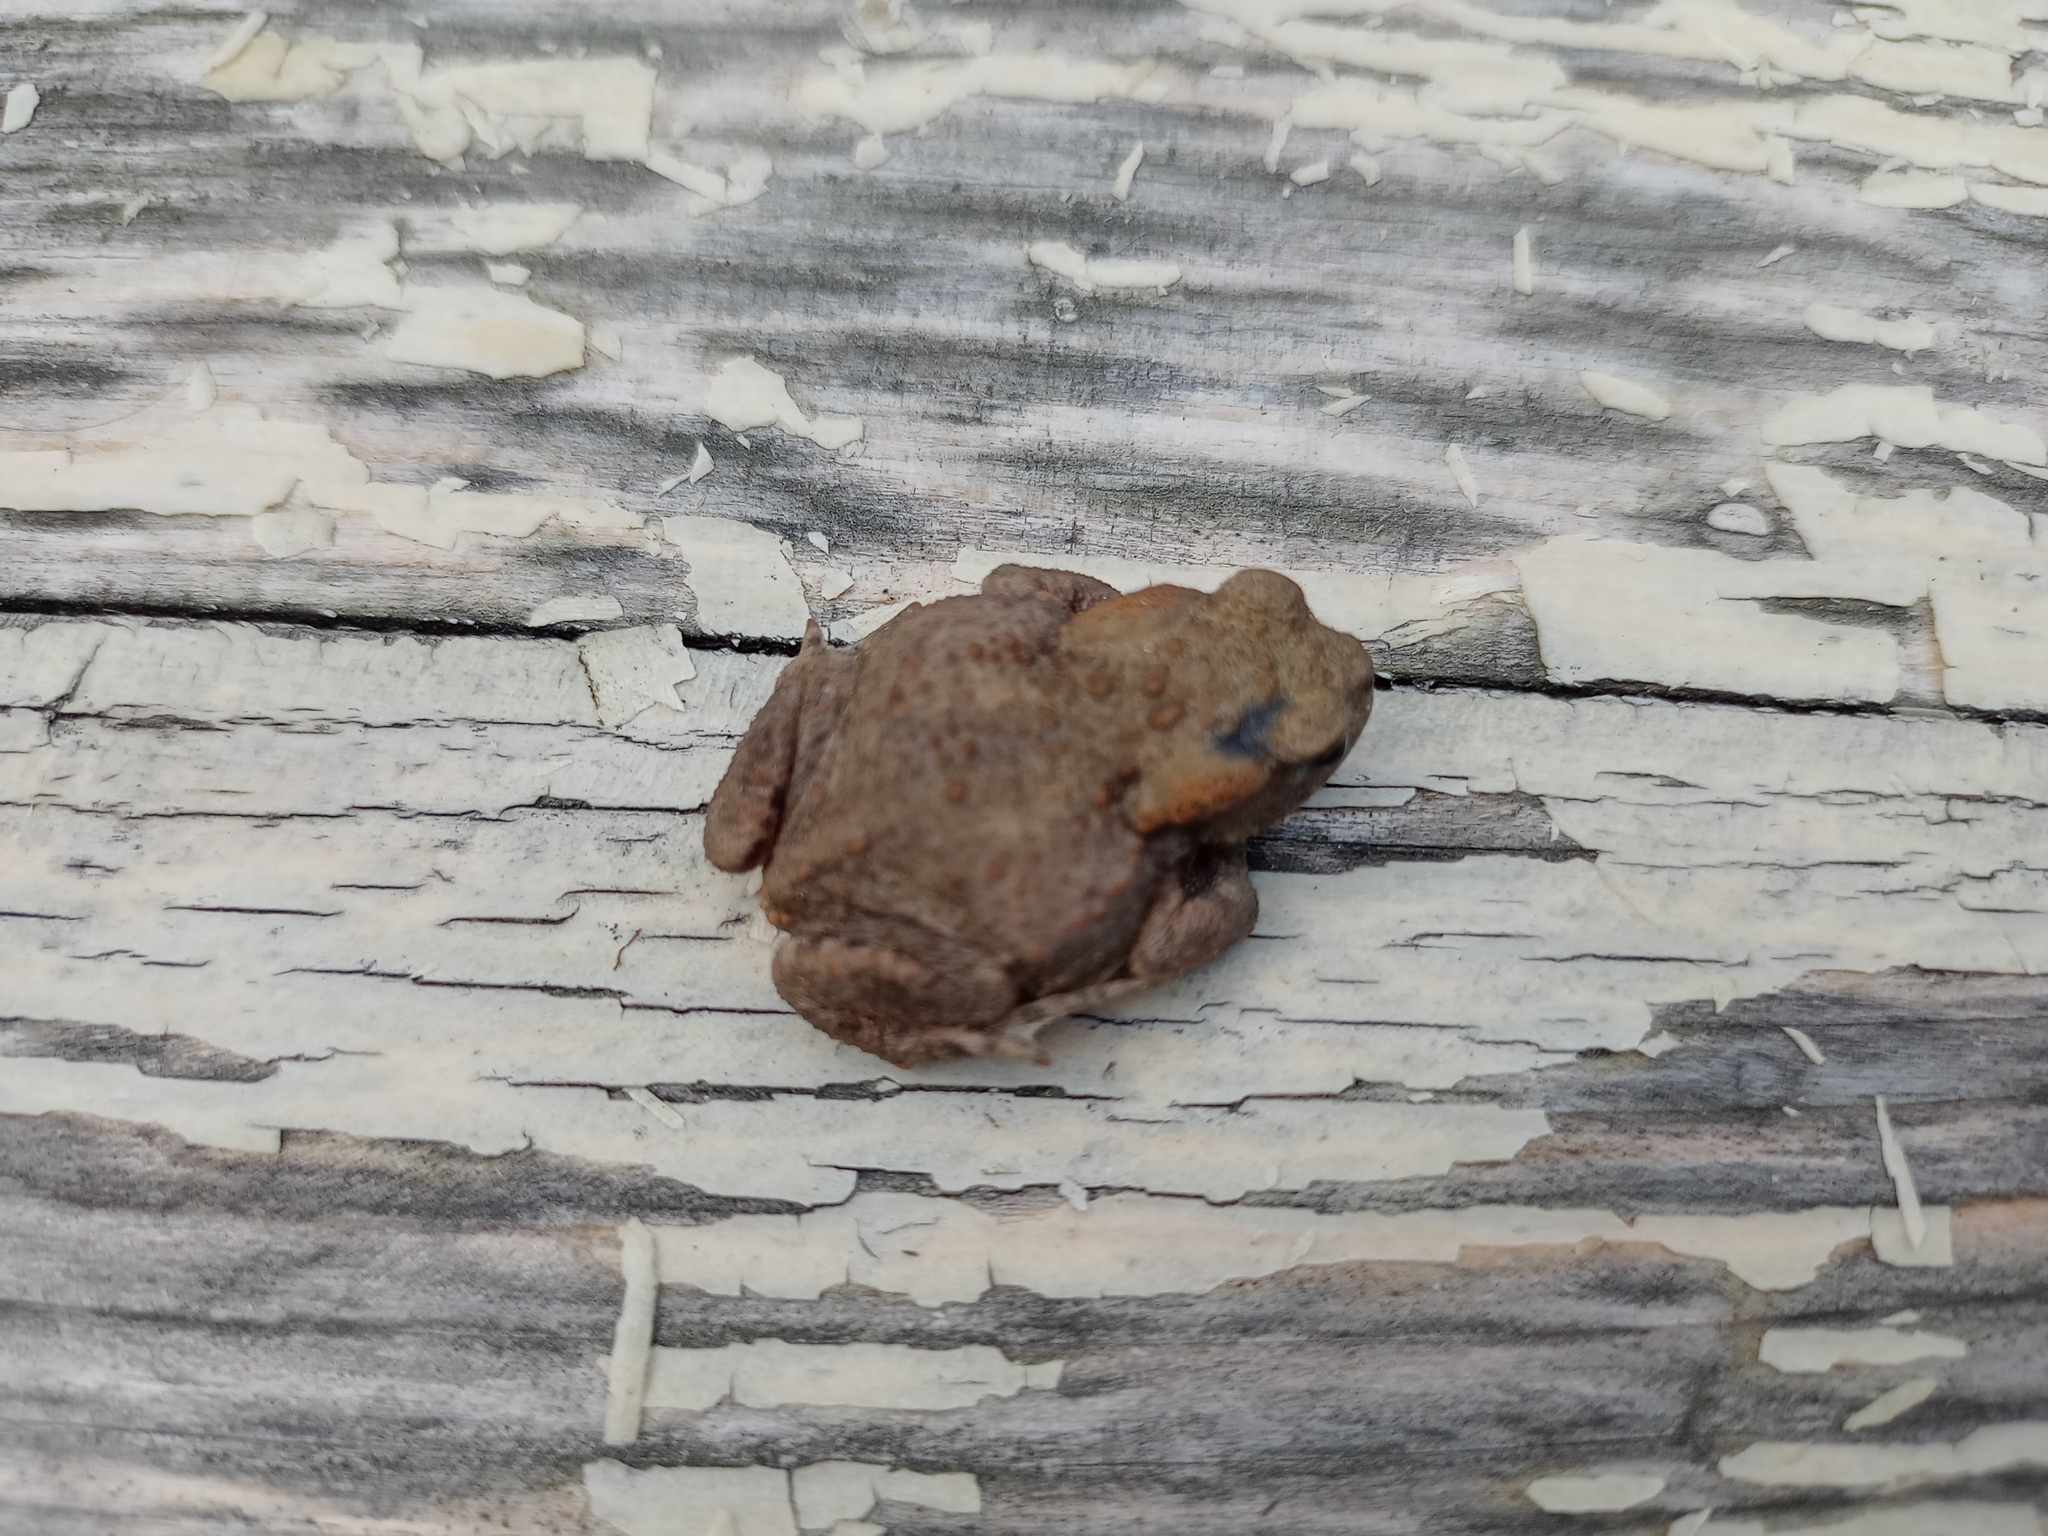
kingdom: Animalia
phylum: Chordata
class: Amphibia
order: Anura
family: Bufonidae
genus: Bufo
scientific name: Bufo bufo
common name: Common toad
